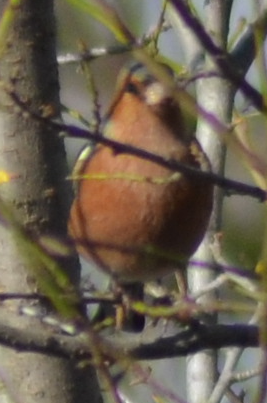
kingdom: Animalia
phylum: Chordata
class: Aves
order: Passeriformes
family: Fringillidae
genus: Fringilla
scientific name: Fringilla coelebs
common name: Common chaffinch
